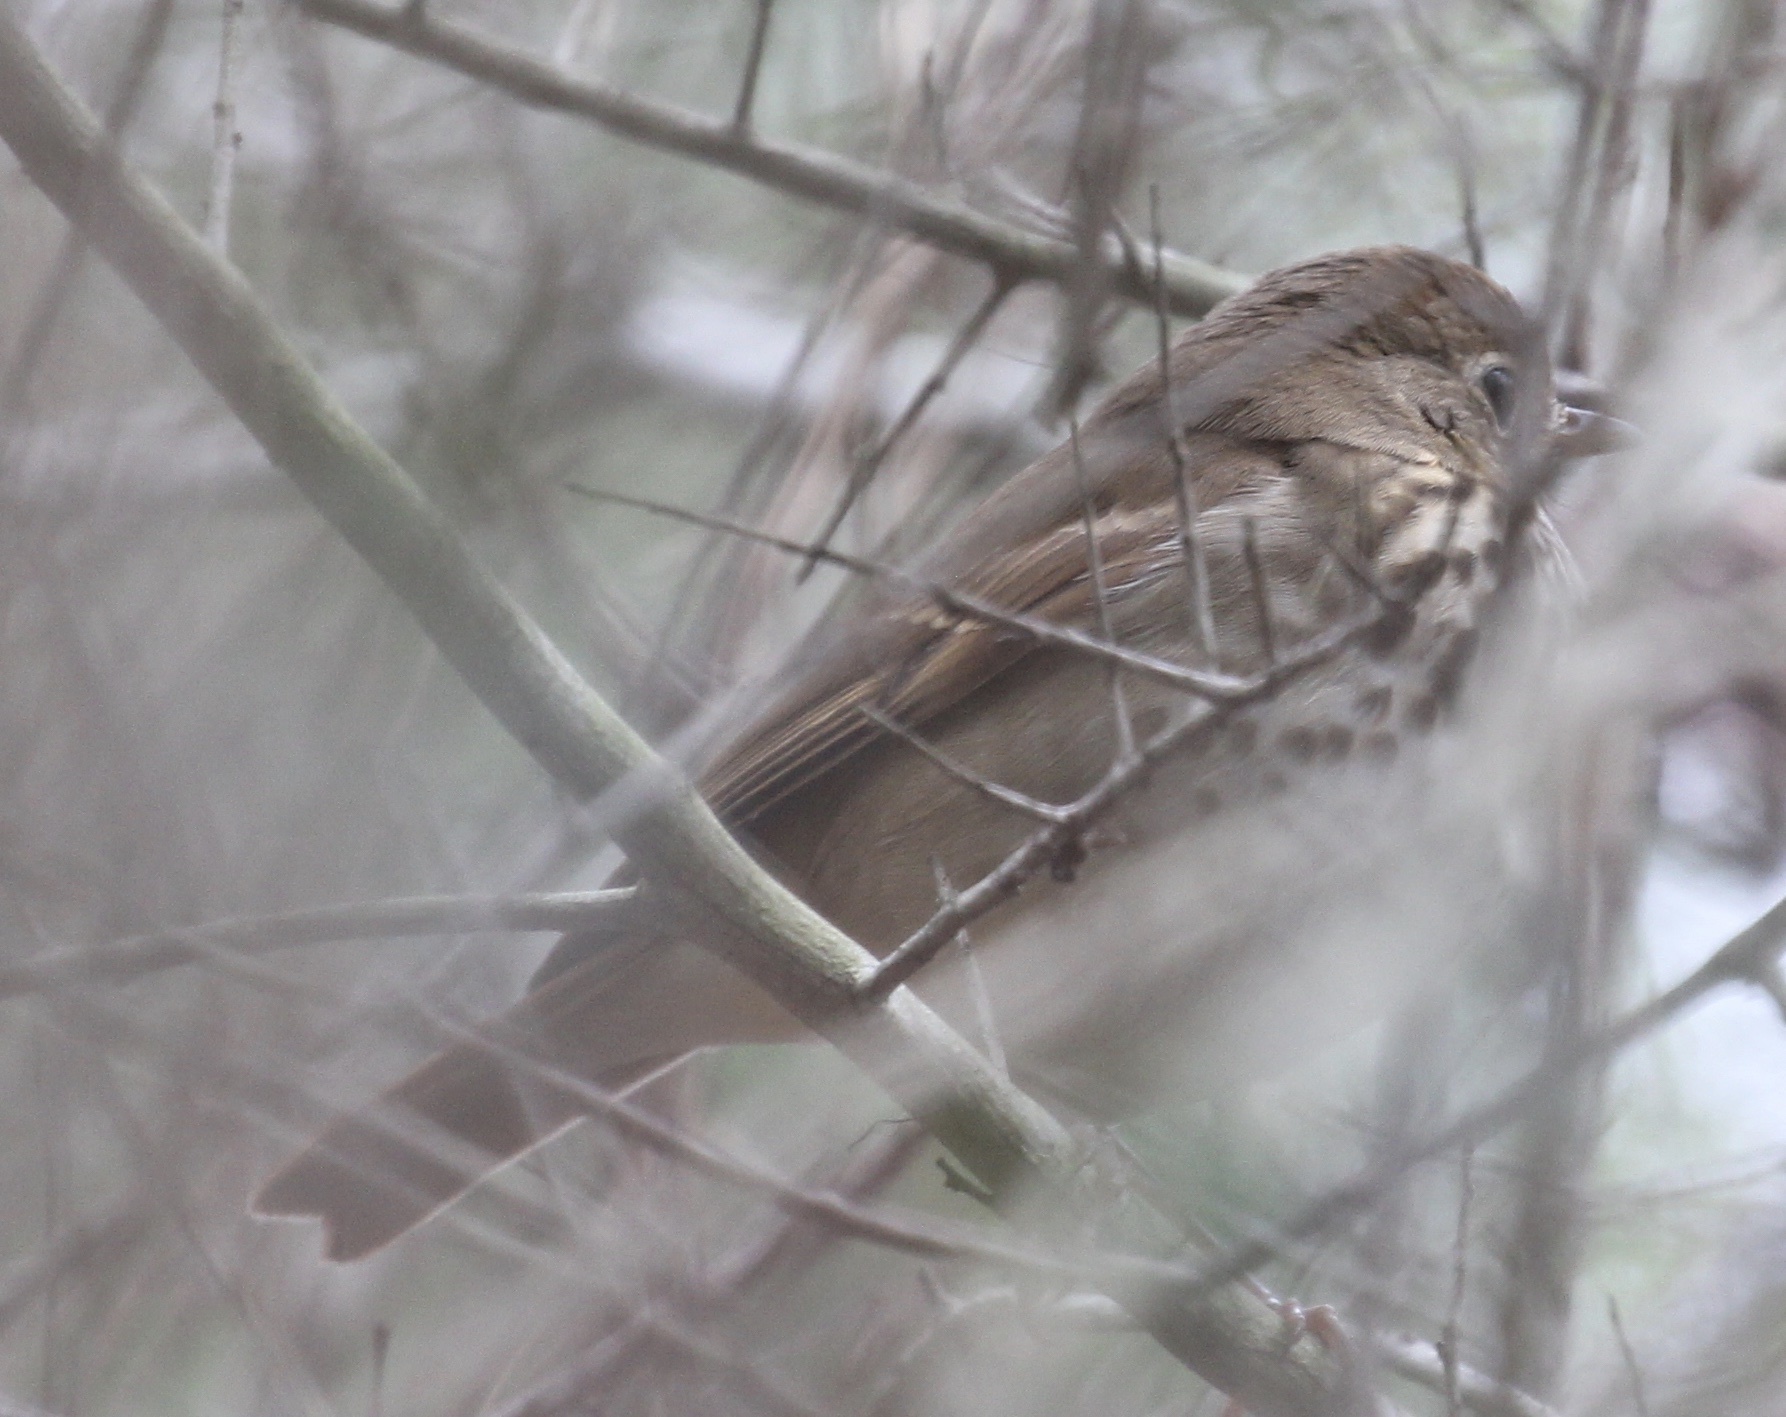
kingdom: Animalia
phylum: Chordata
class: Aves
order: Passeriformes
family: Turdidae
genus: Catharus
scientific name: Catharus guttatus
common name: Hermit thrush
